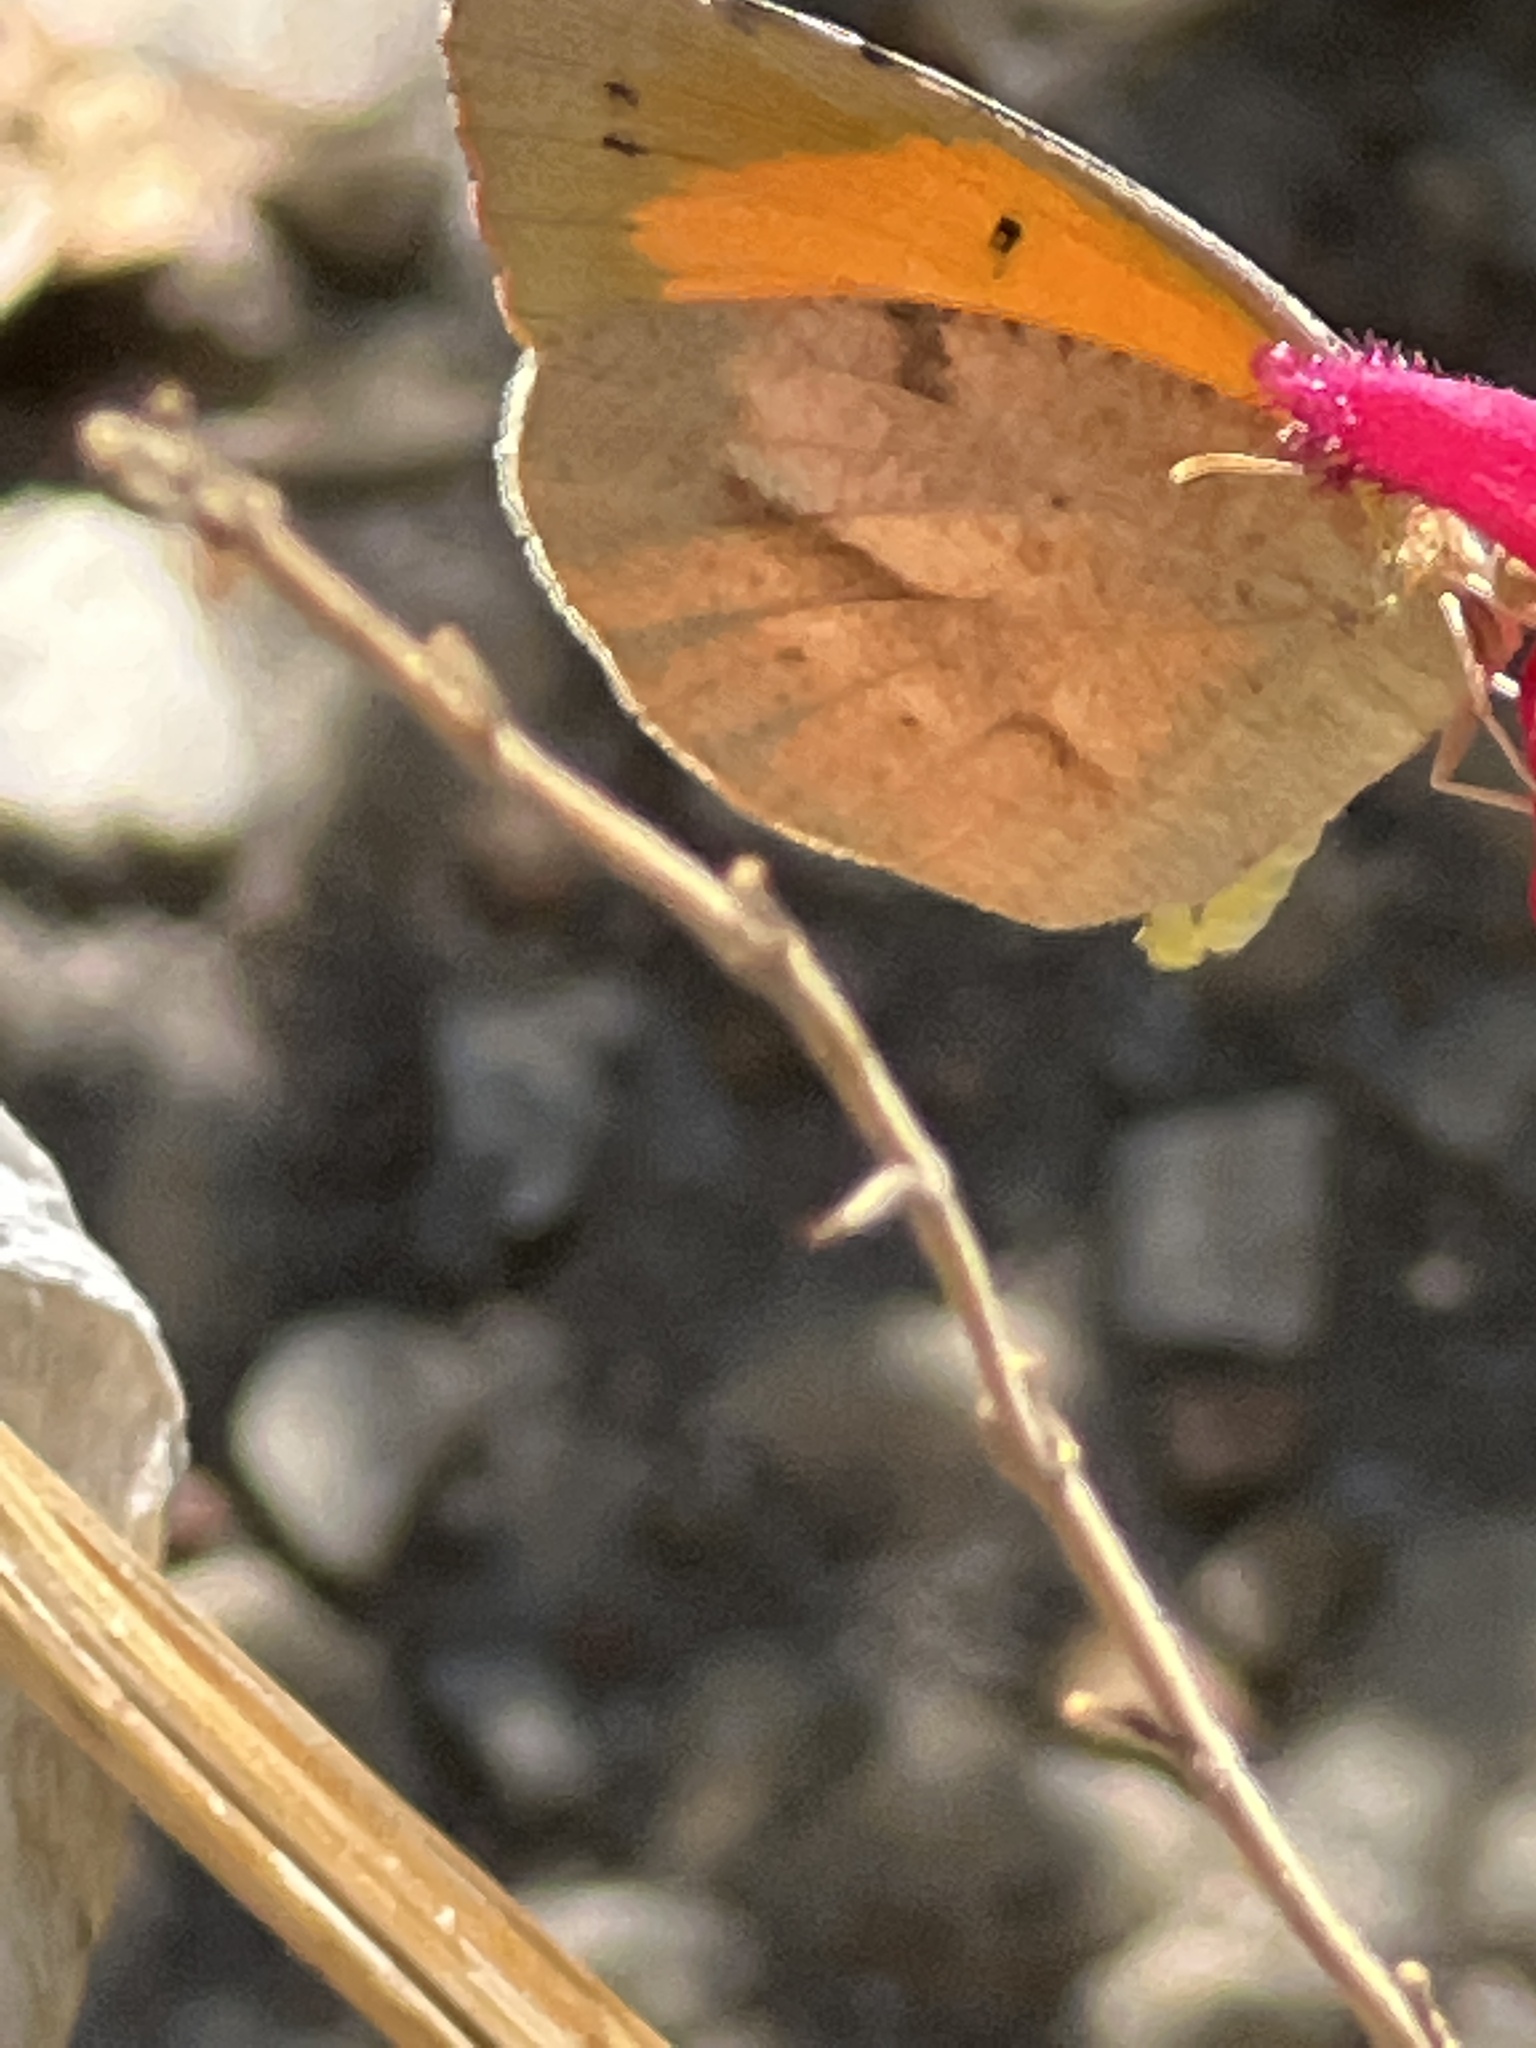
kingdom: Animalia
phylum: Arthropoda
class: Insecta
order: Lepidoptera
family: Pieridae
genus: Abaeis
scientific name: Abaeis nicippe
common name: Sleepy orange
